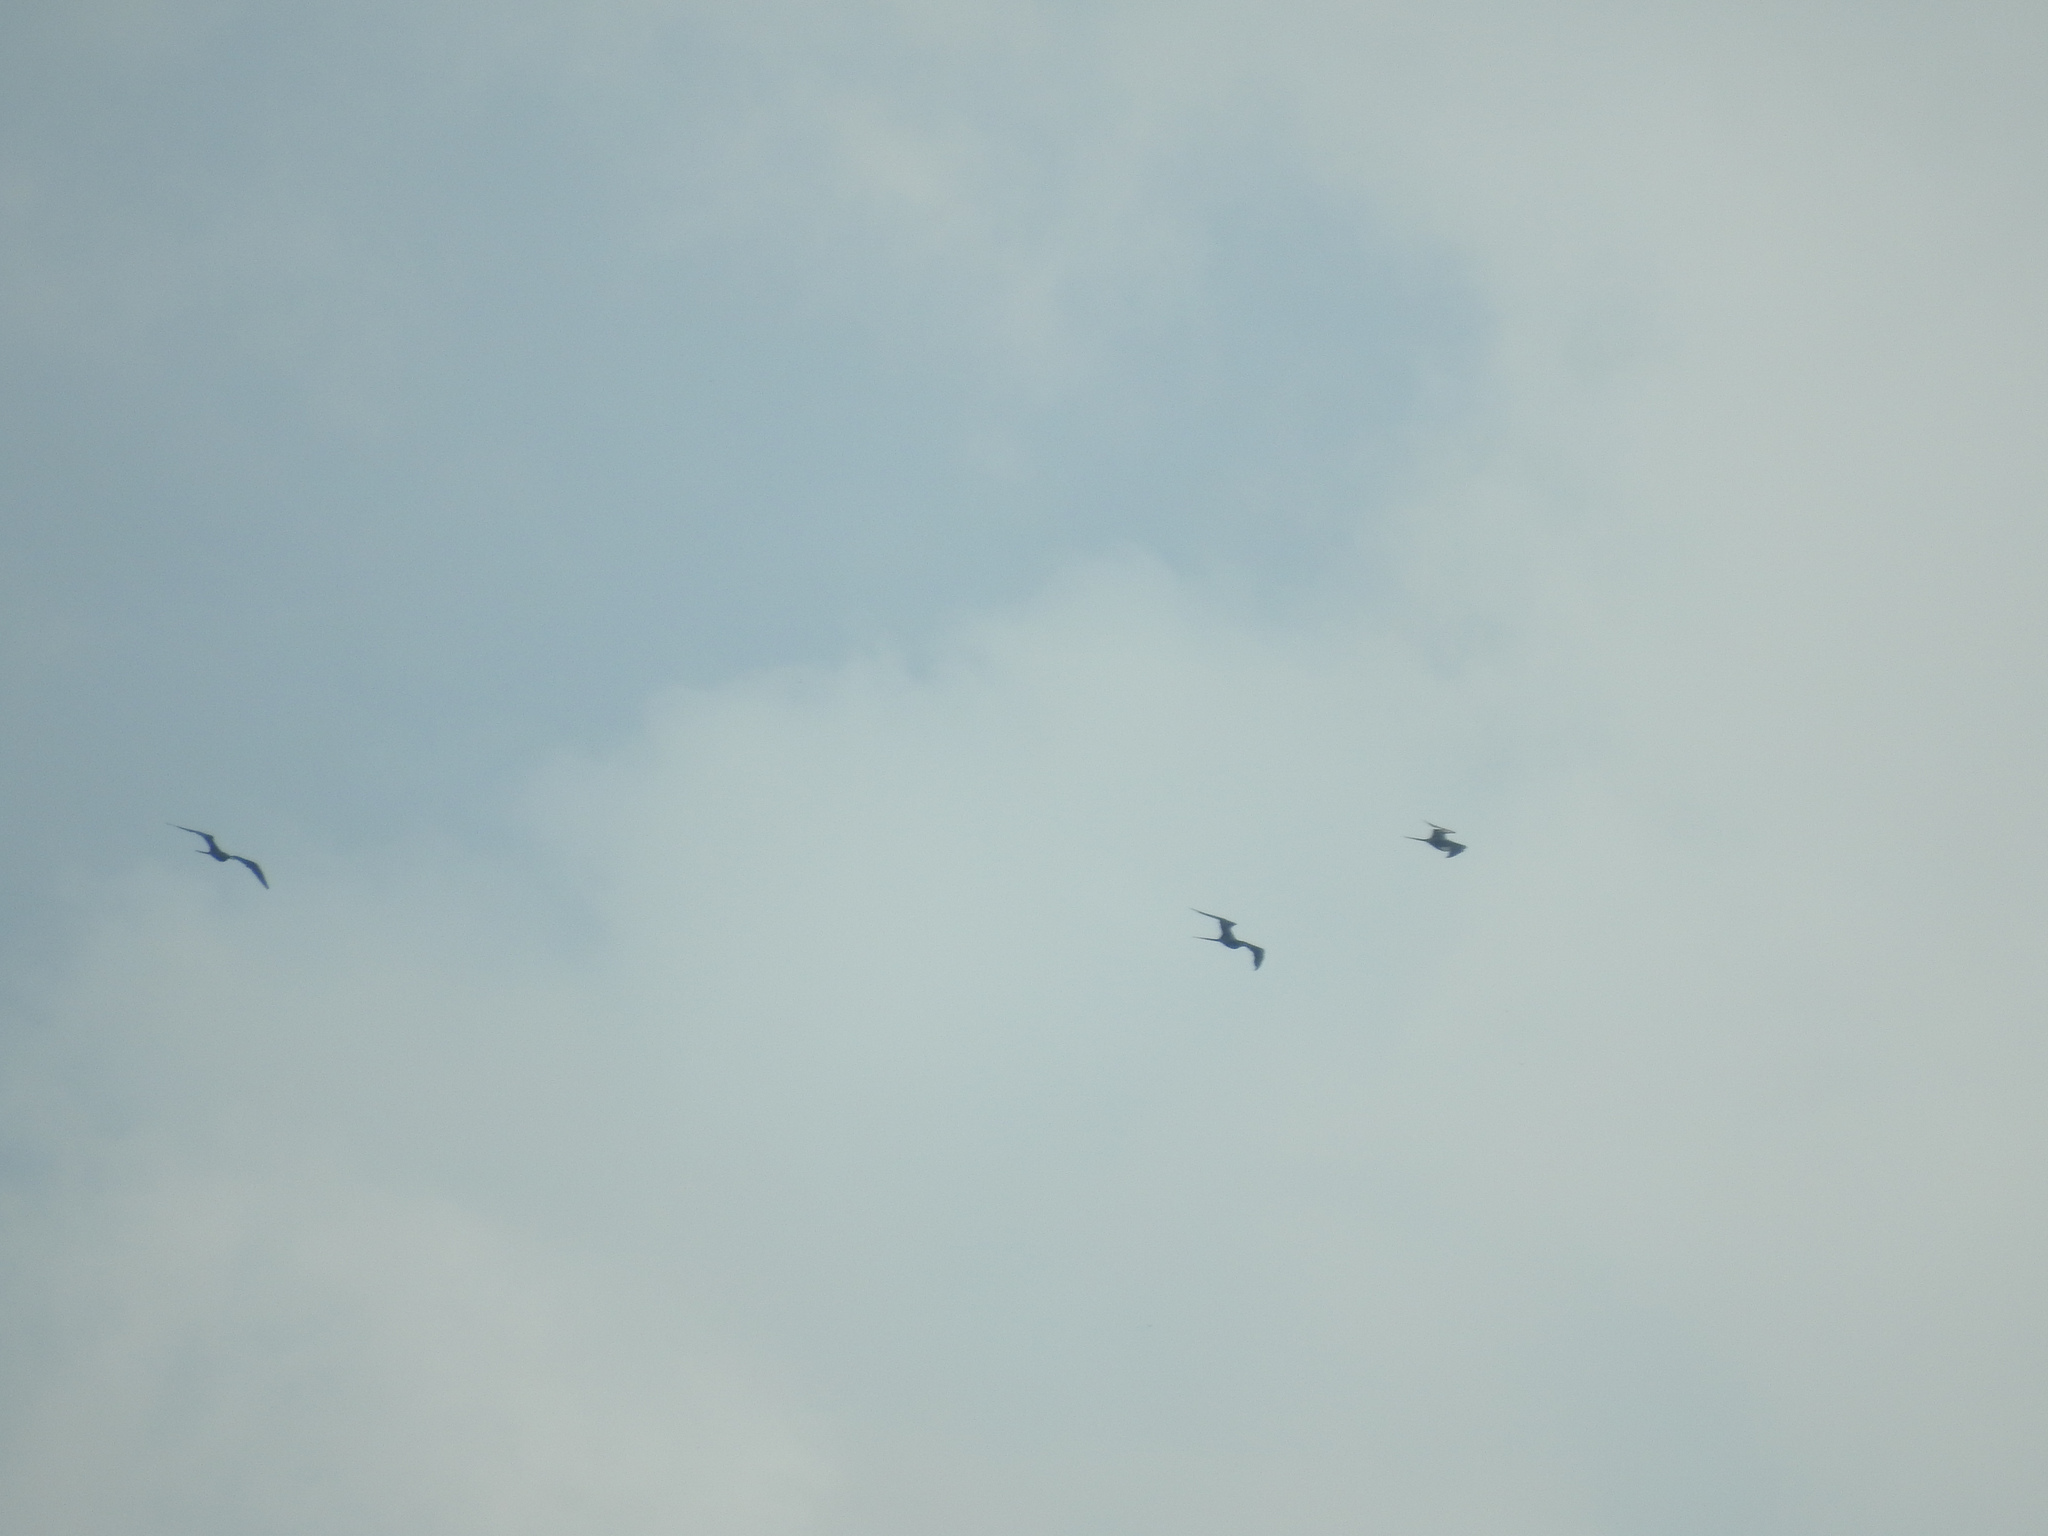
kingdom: Animalia
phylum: Chordata
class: Aves
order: Suliformes
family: Fregatidae
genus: Fregata
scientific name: Fregata magnificens
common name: Magnificent frigatebird
